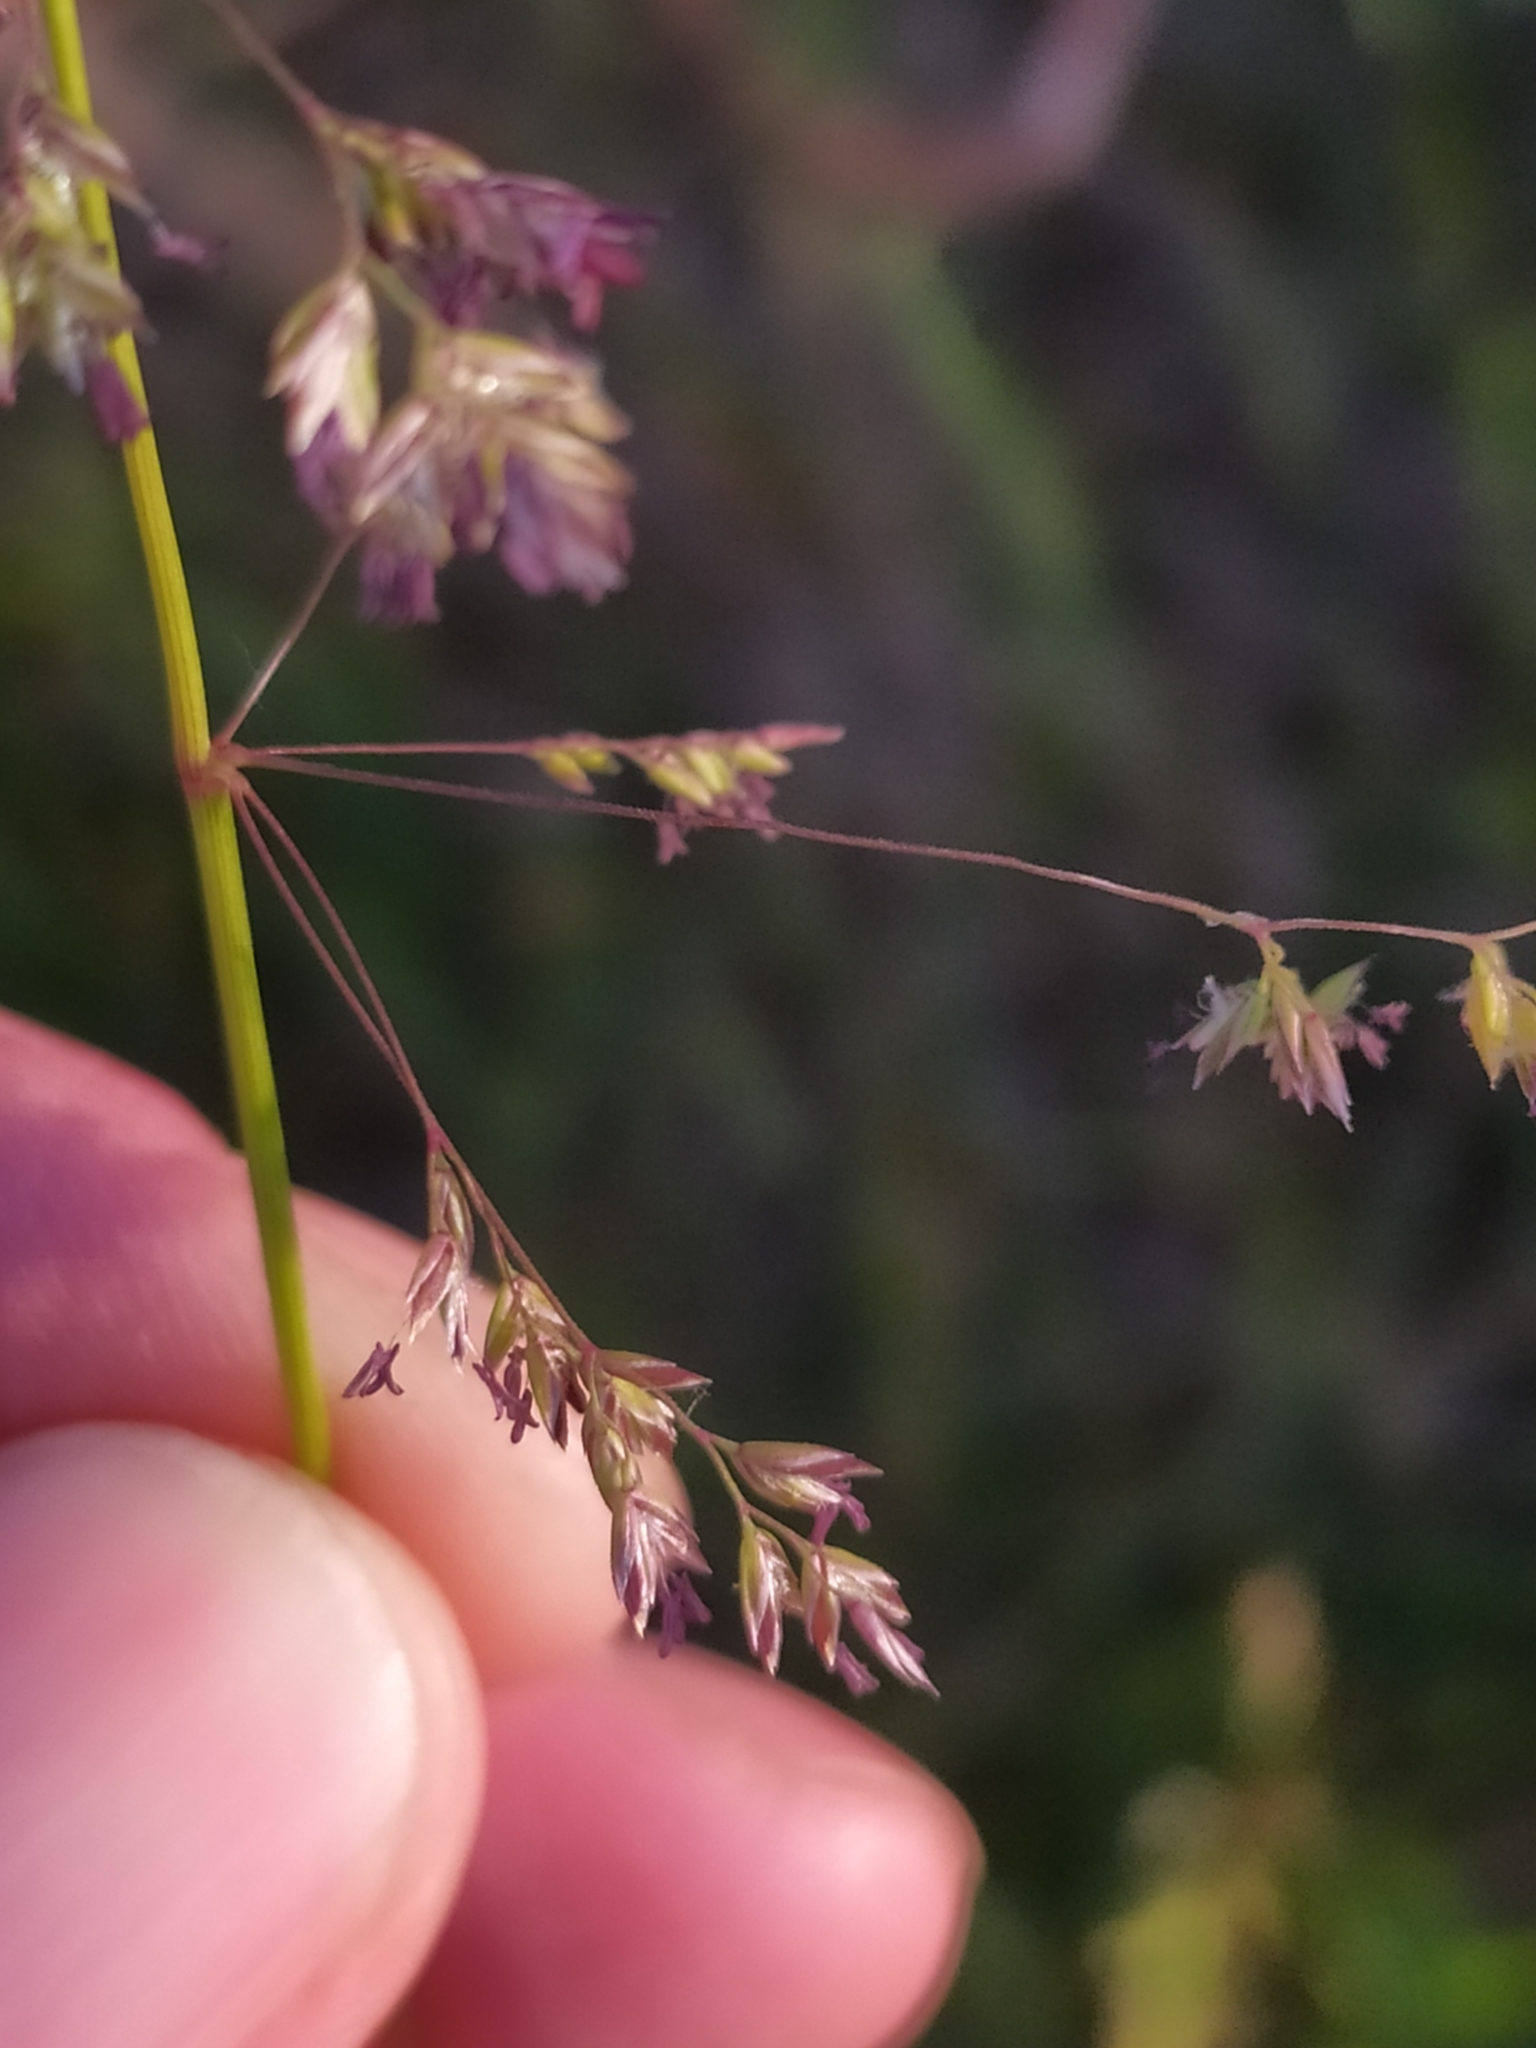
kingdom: Plantae
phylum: Tracheophyta
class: Liliopsida
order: Poales
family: Poaceae
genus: Poa
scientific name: Poa trivialis
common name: Rough bluegrass
